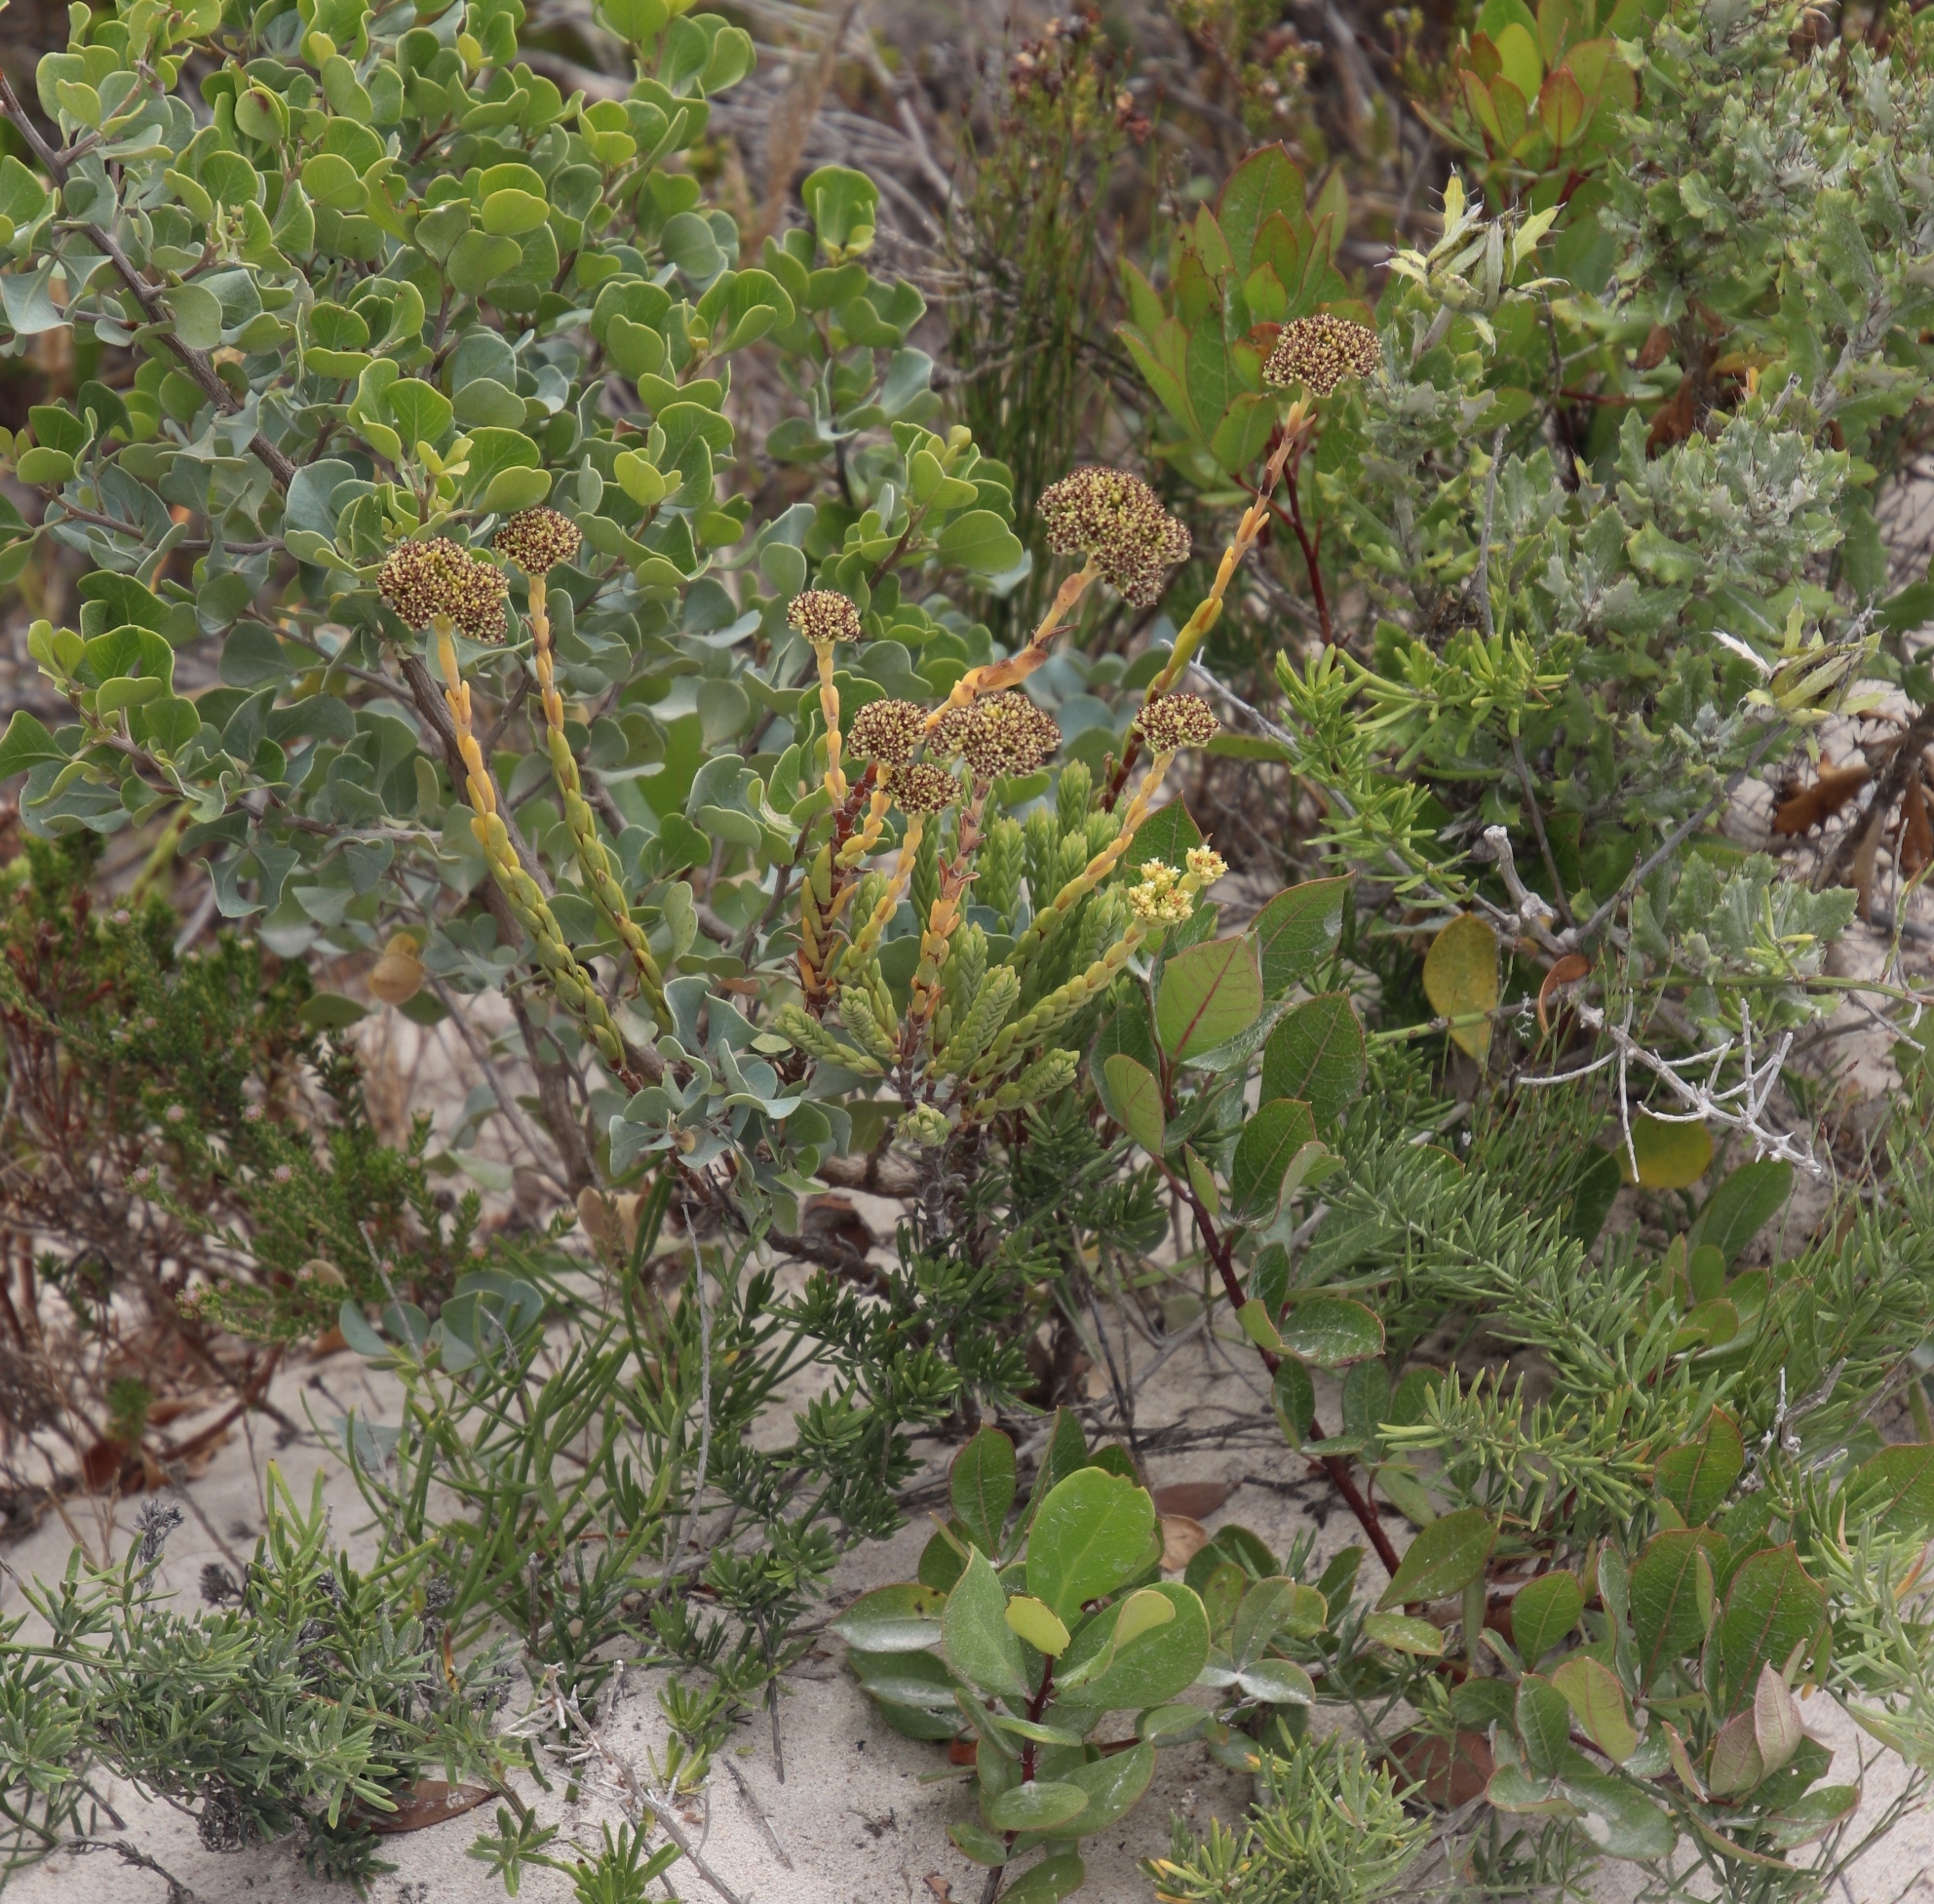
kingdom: Plantae
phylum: Tracheophyta
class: Magnoliopsida
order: Saxifragales
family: Crassulaceae
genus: Crassula
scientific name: Crassula subulata
